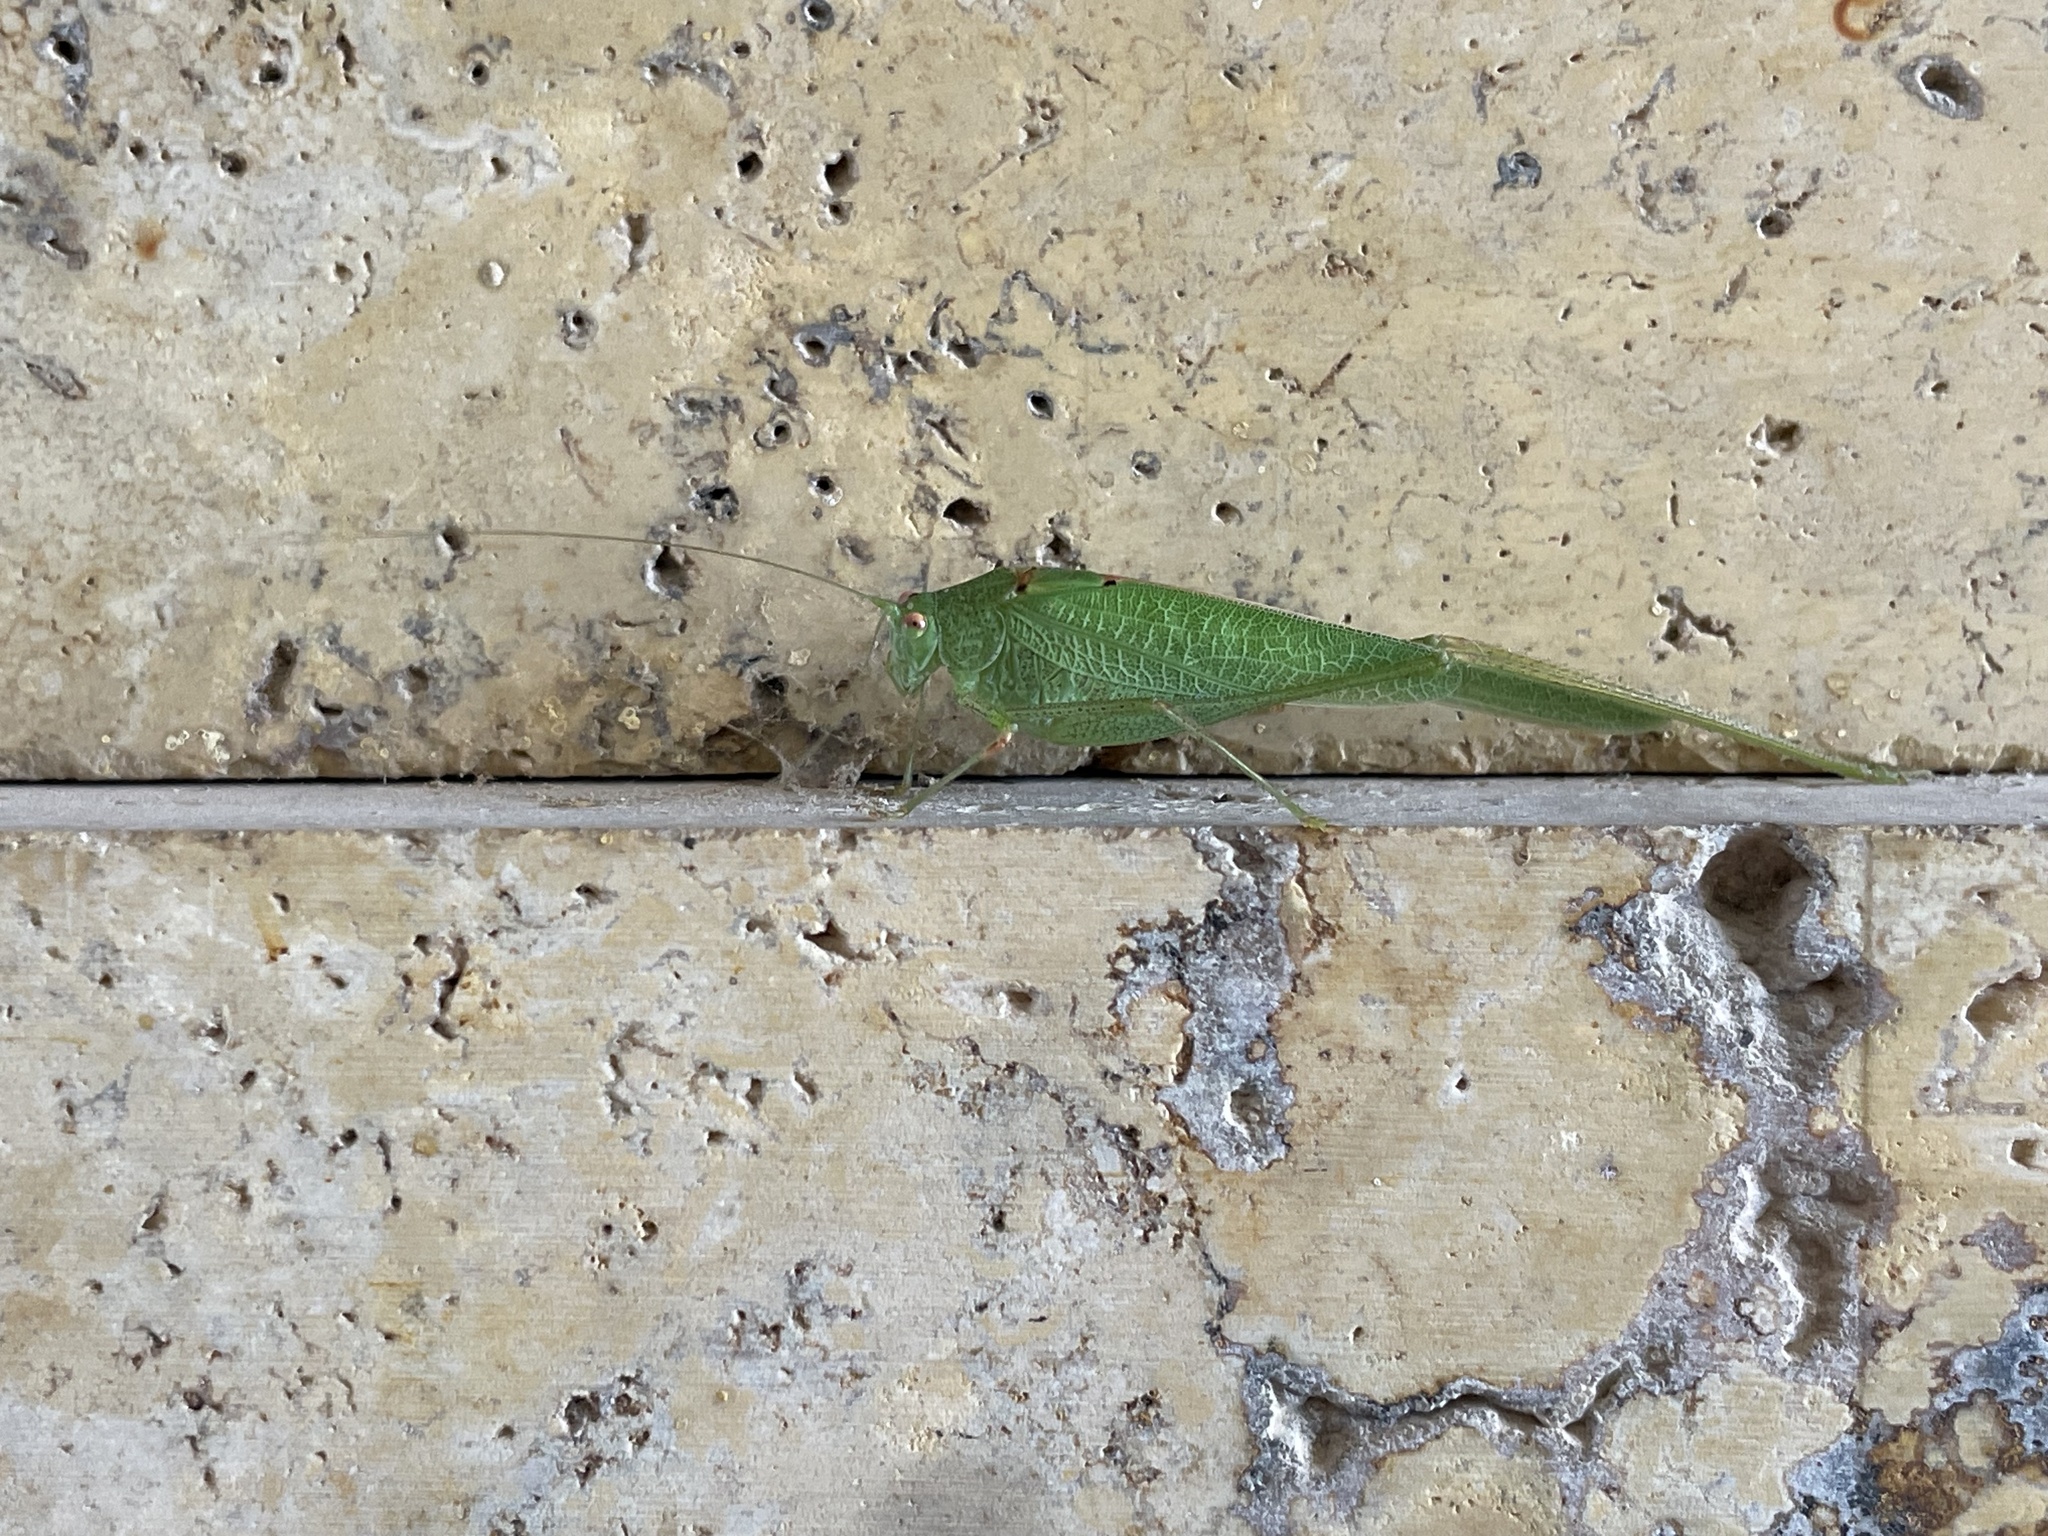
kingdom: Animalia
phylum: Arthropoda
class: Insecta
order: Orthoptera
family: Tettigoniidae
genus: Phaneroptera
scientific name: Phaneroptera nana
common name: Southern sickle bush-cricket
